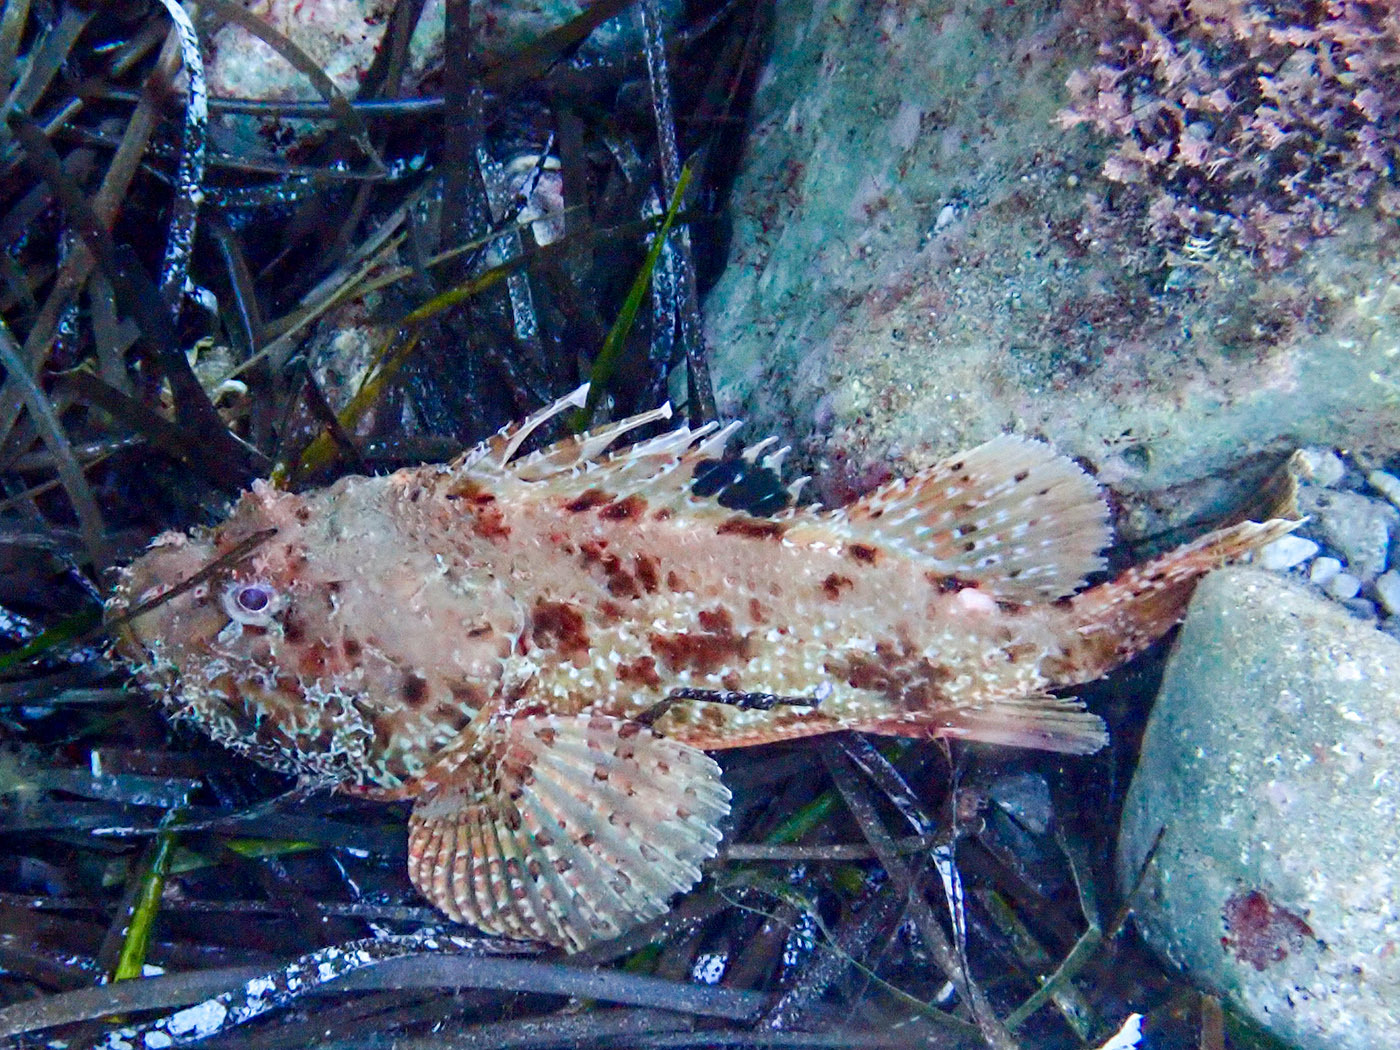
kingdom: Animalia
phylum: Chordata
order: Scorpaeniformes
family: Scorpaenidae
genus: Scorpaena
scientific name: Scorpaena scrofa
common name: Red scorpionfish
